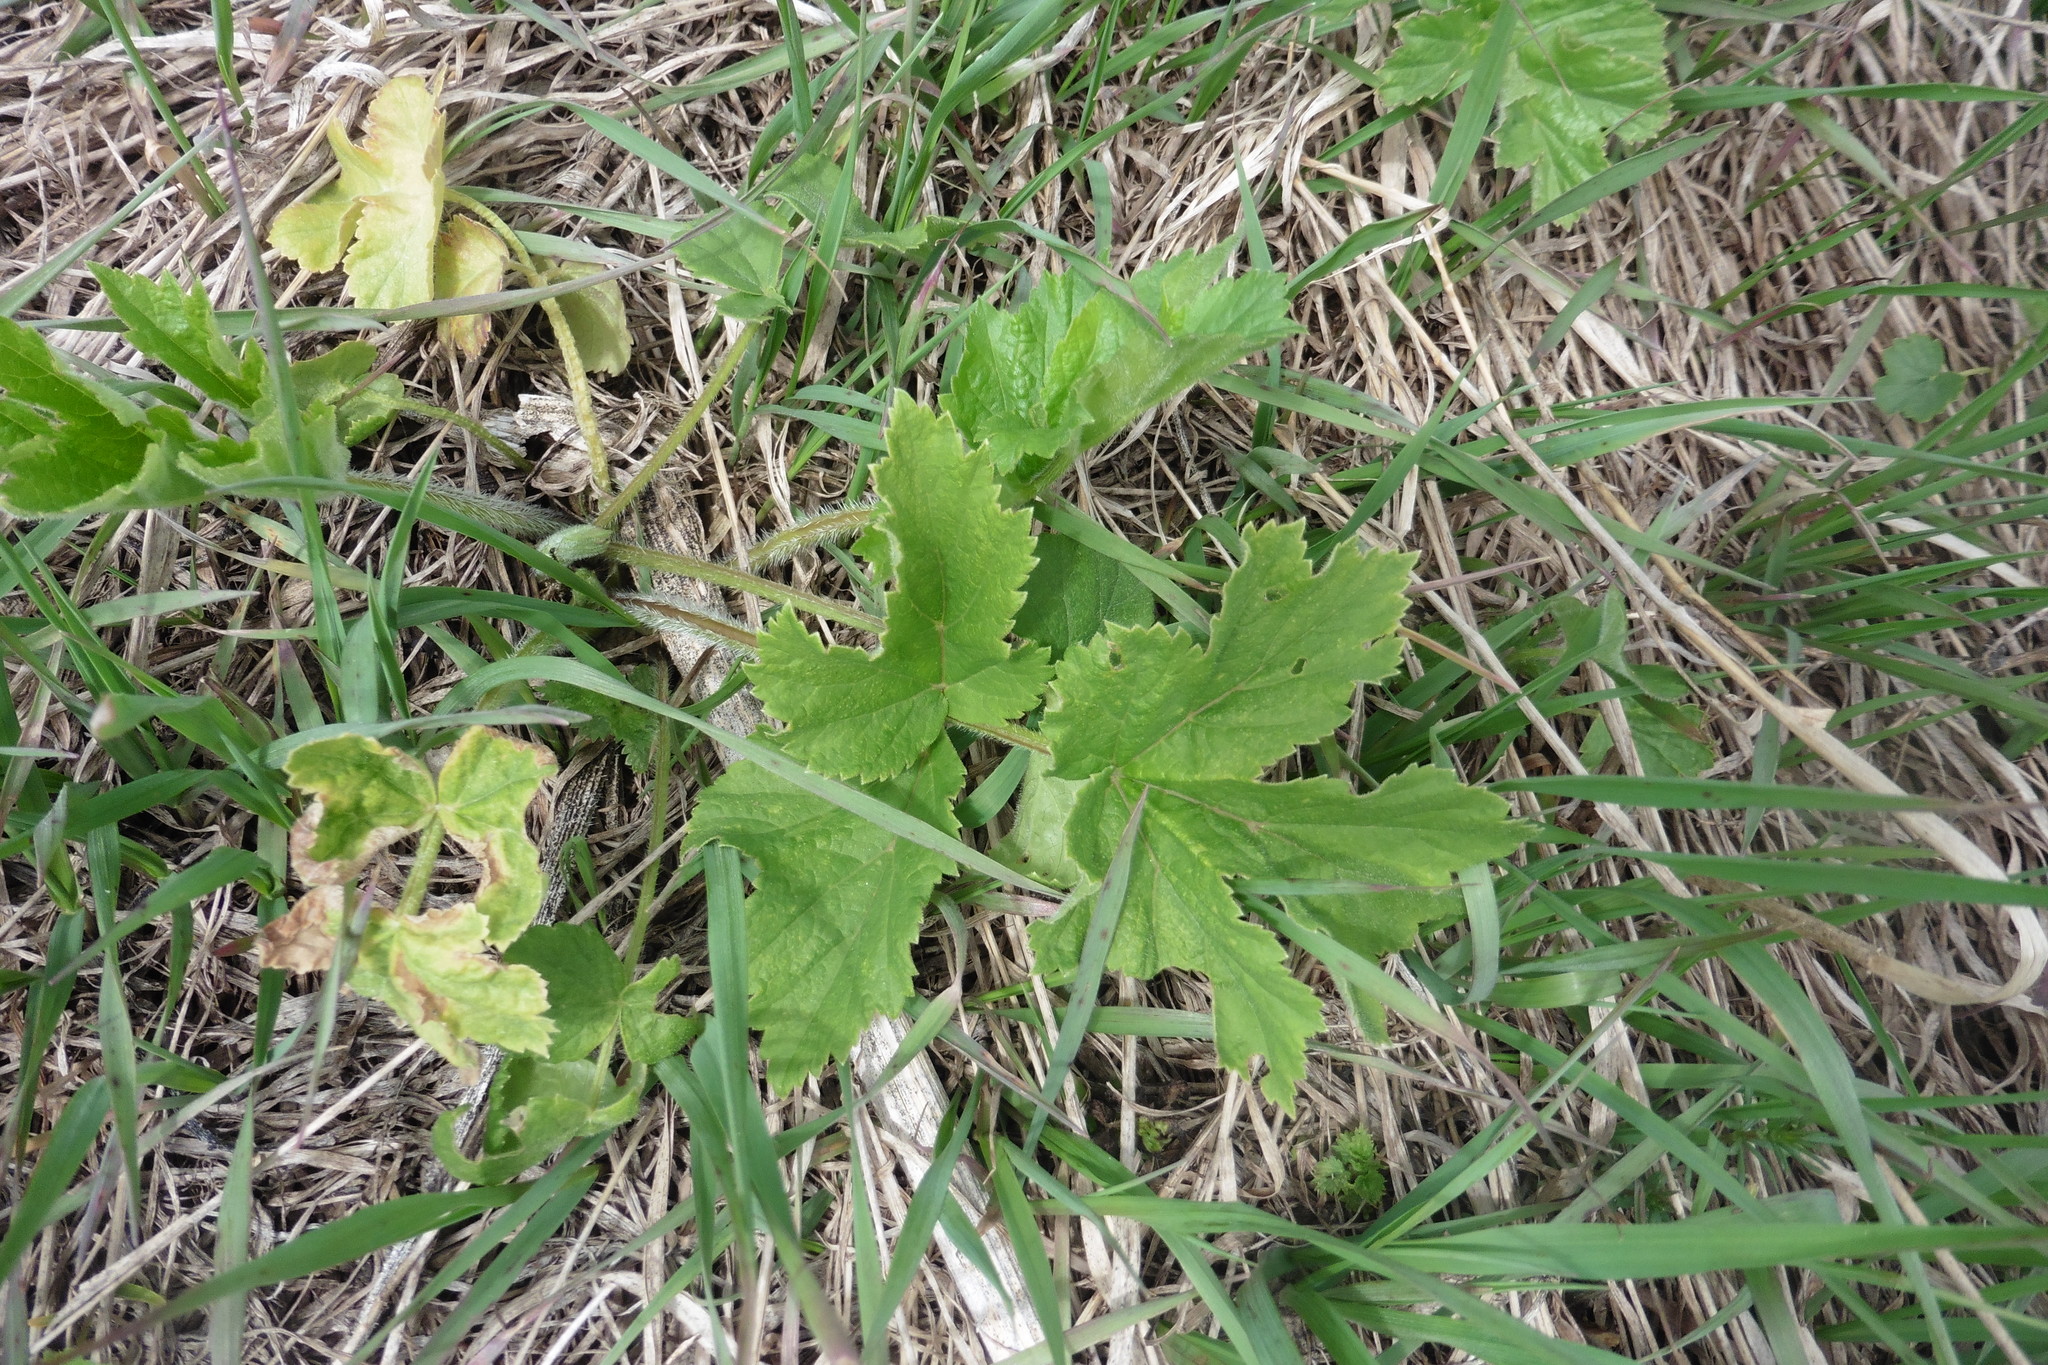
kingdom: Plantae
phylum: Tracheophyta
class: Magnoliopsida
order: Apiales
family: Apiaceae
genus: Heracleum
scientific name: Heracleum sphondylium
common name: Hogweed
